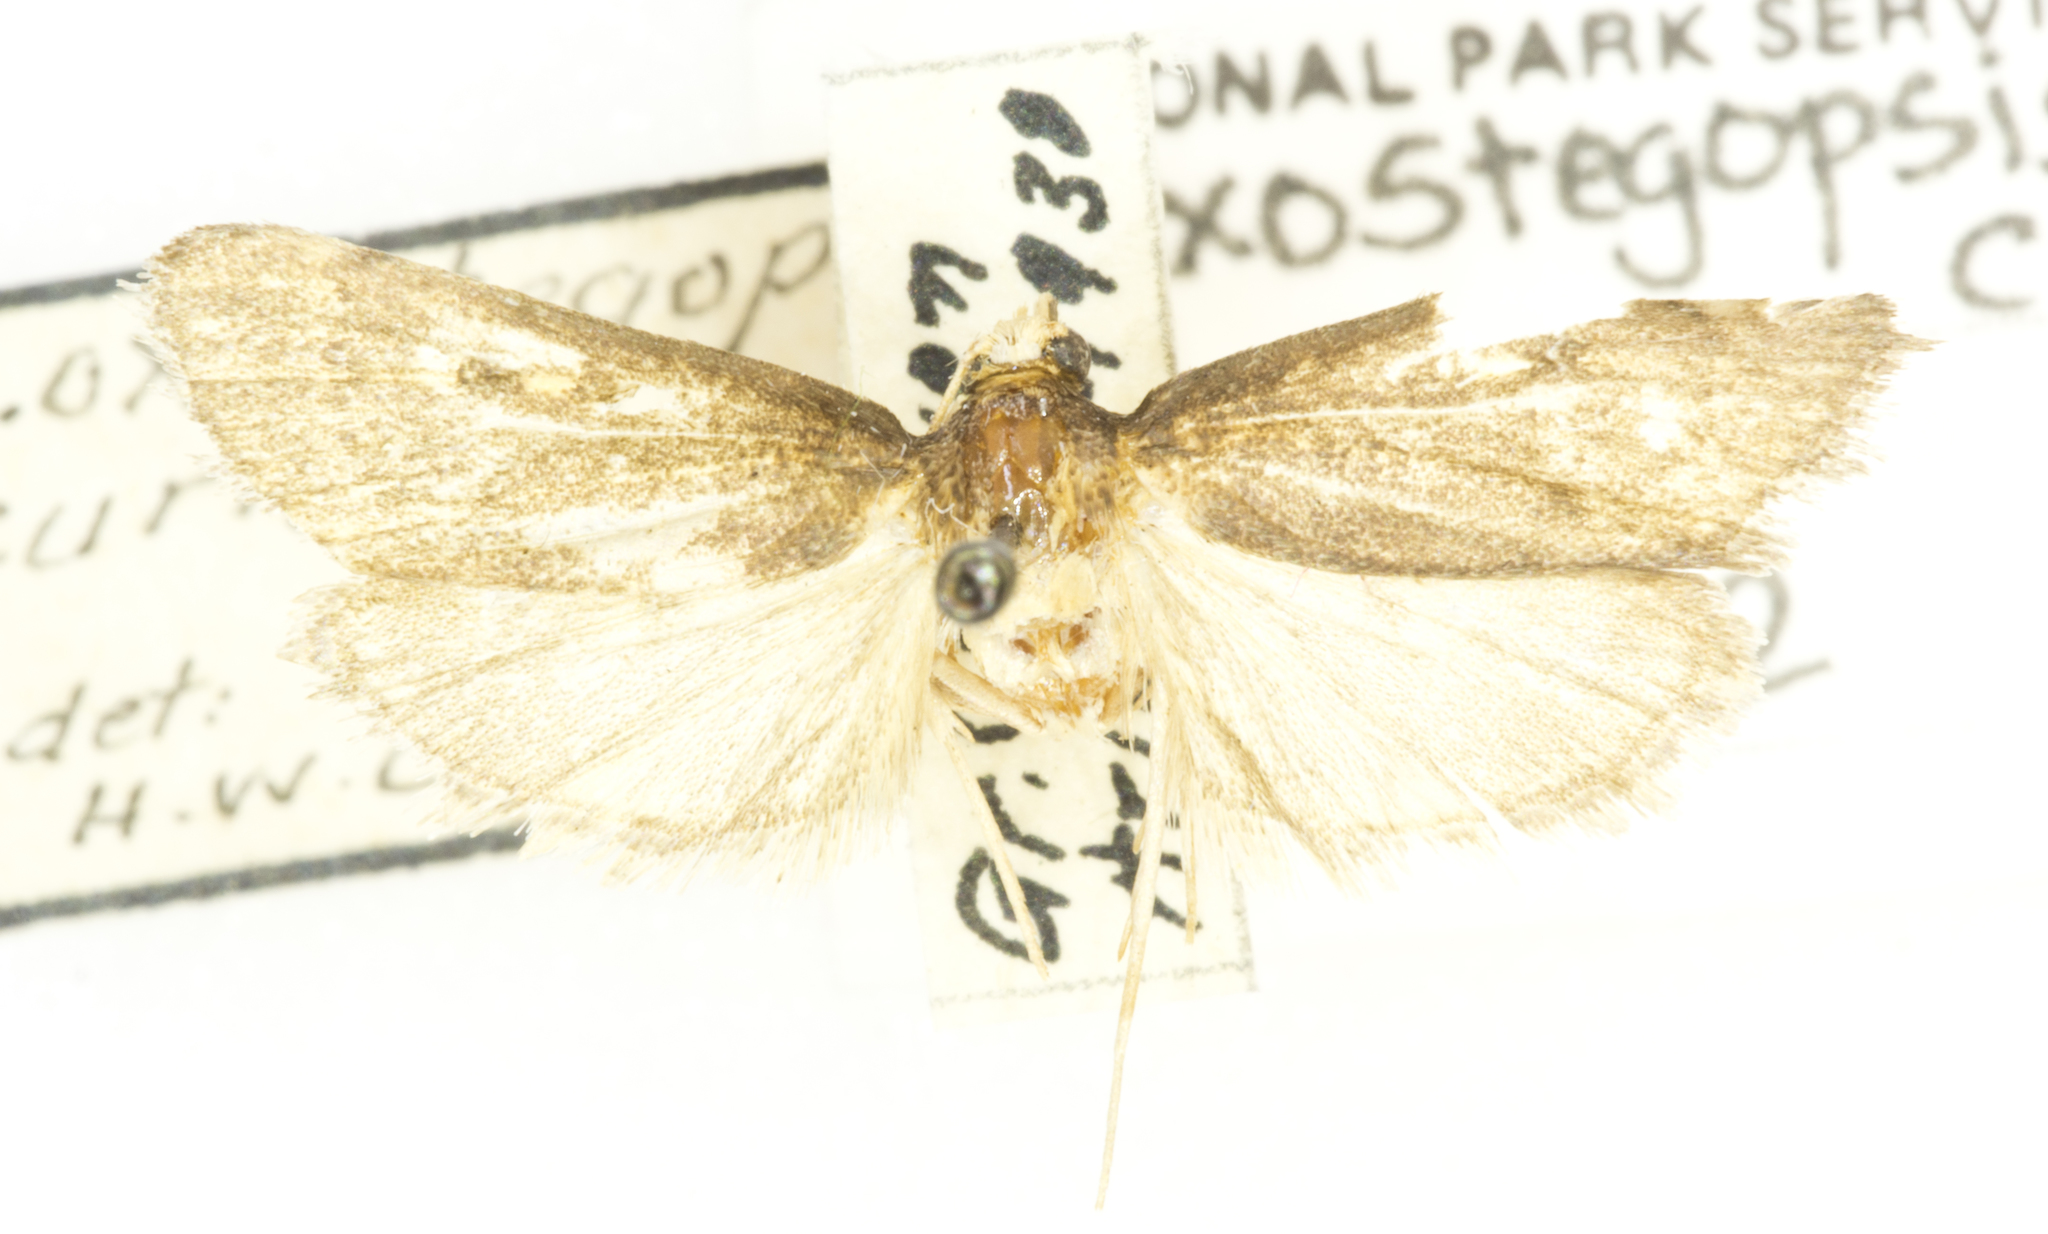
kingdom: Animalia
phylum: Arthropoda
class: Insecta
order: Lepidoptera
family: Crambidae
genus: Loxostegopsis
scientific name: Loxostegopsis curialis
